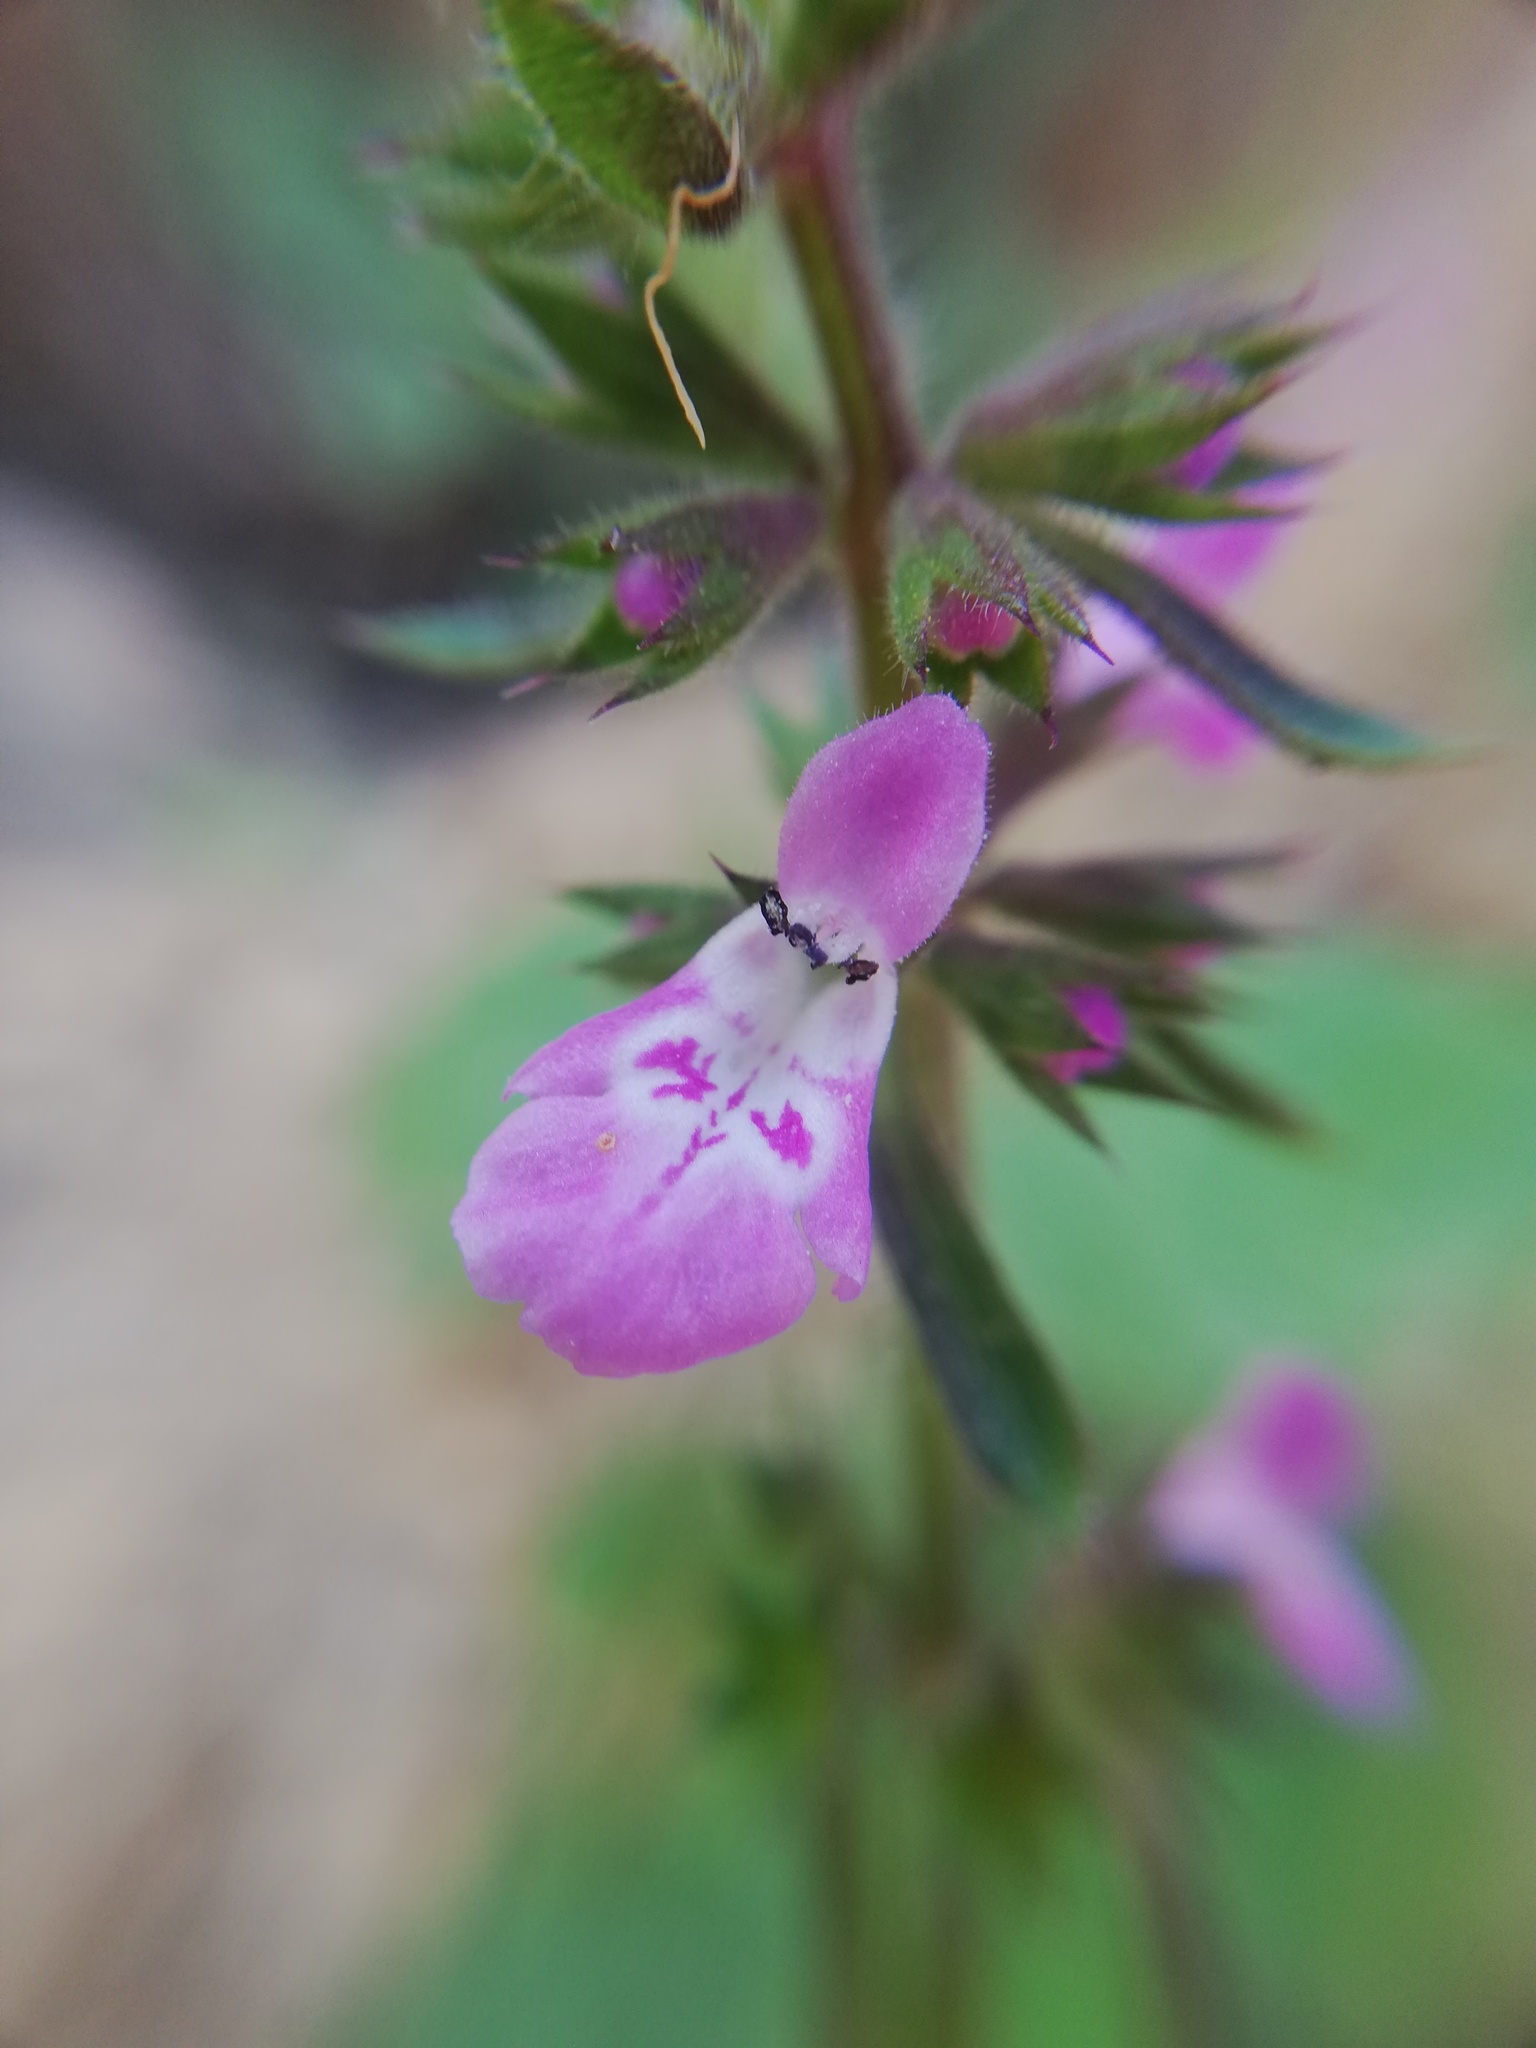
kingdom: Plantae
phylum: Tracheophyta
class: Magnoliopsida
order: Lamiales
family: Lamiaceae
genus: Stachys
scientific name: Stachys drummondii
